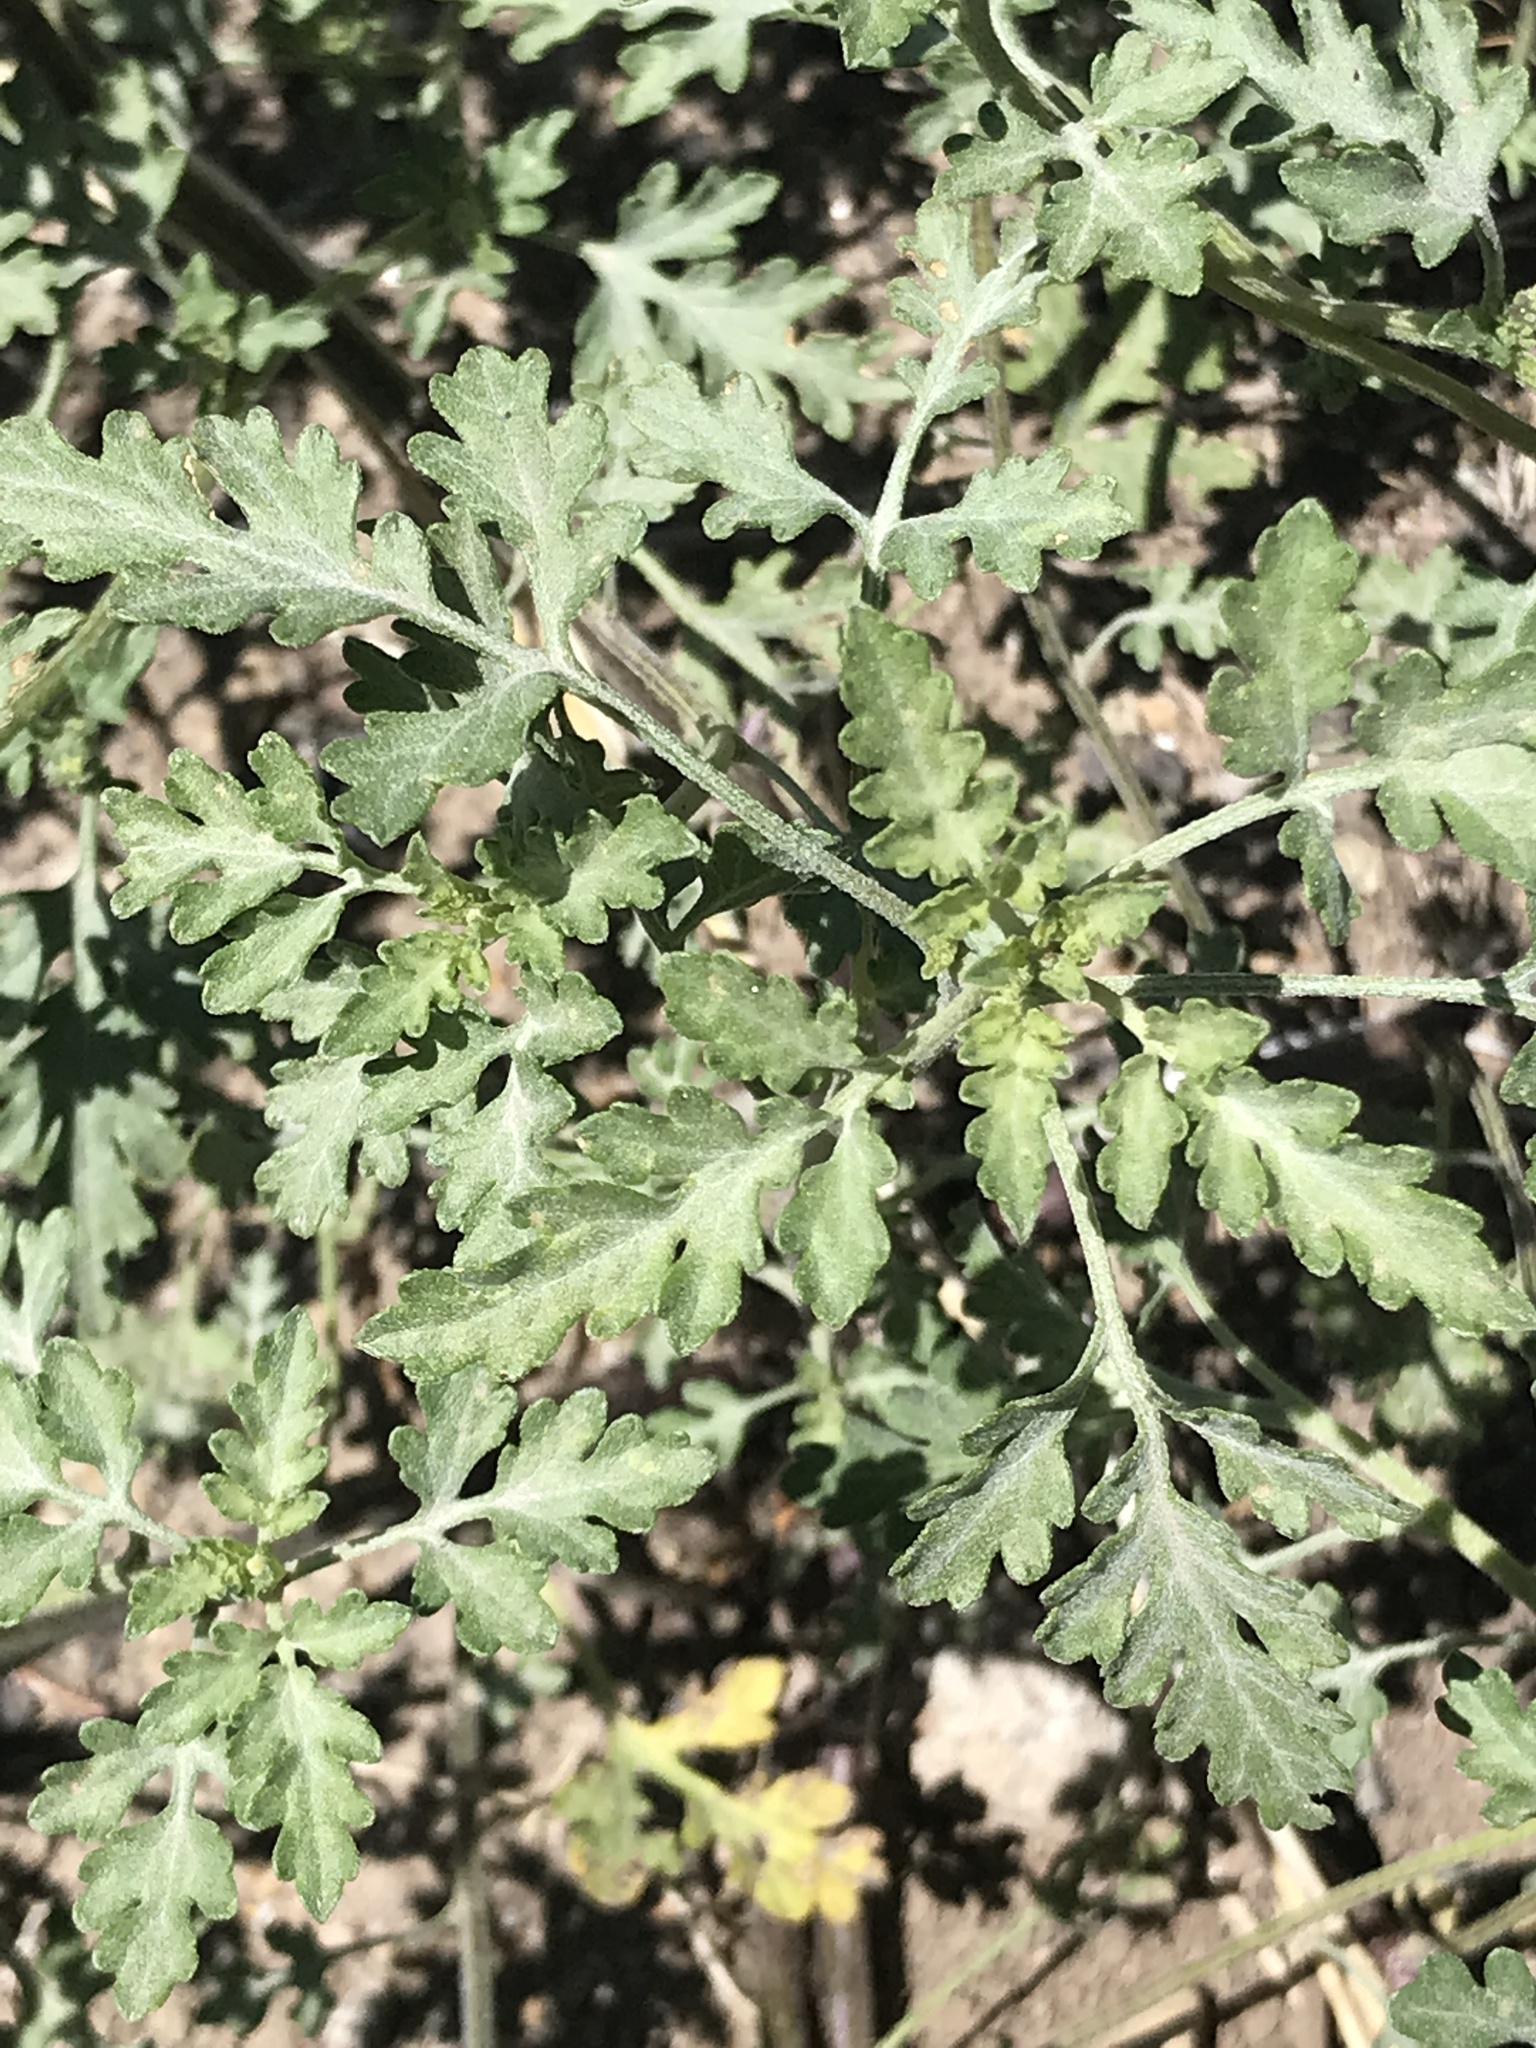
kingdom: Plantae
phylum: Tracheophyta
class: Magnoliopsida
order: Asterales
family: Asteraceae
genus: Ambrosia
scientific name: Ambrosia acanthicarpa
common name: Hooker's bur ragweed
